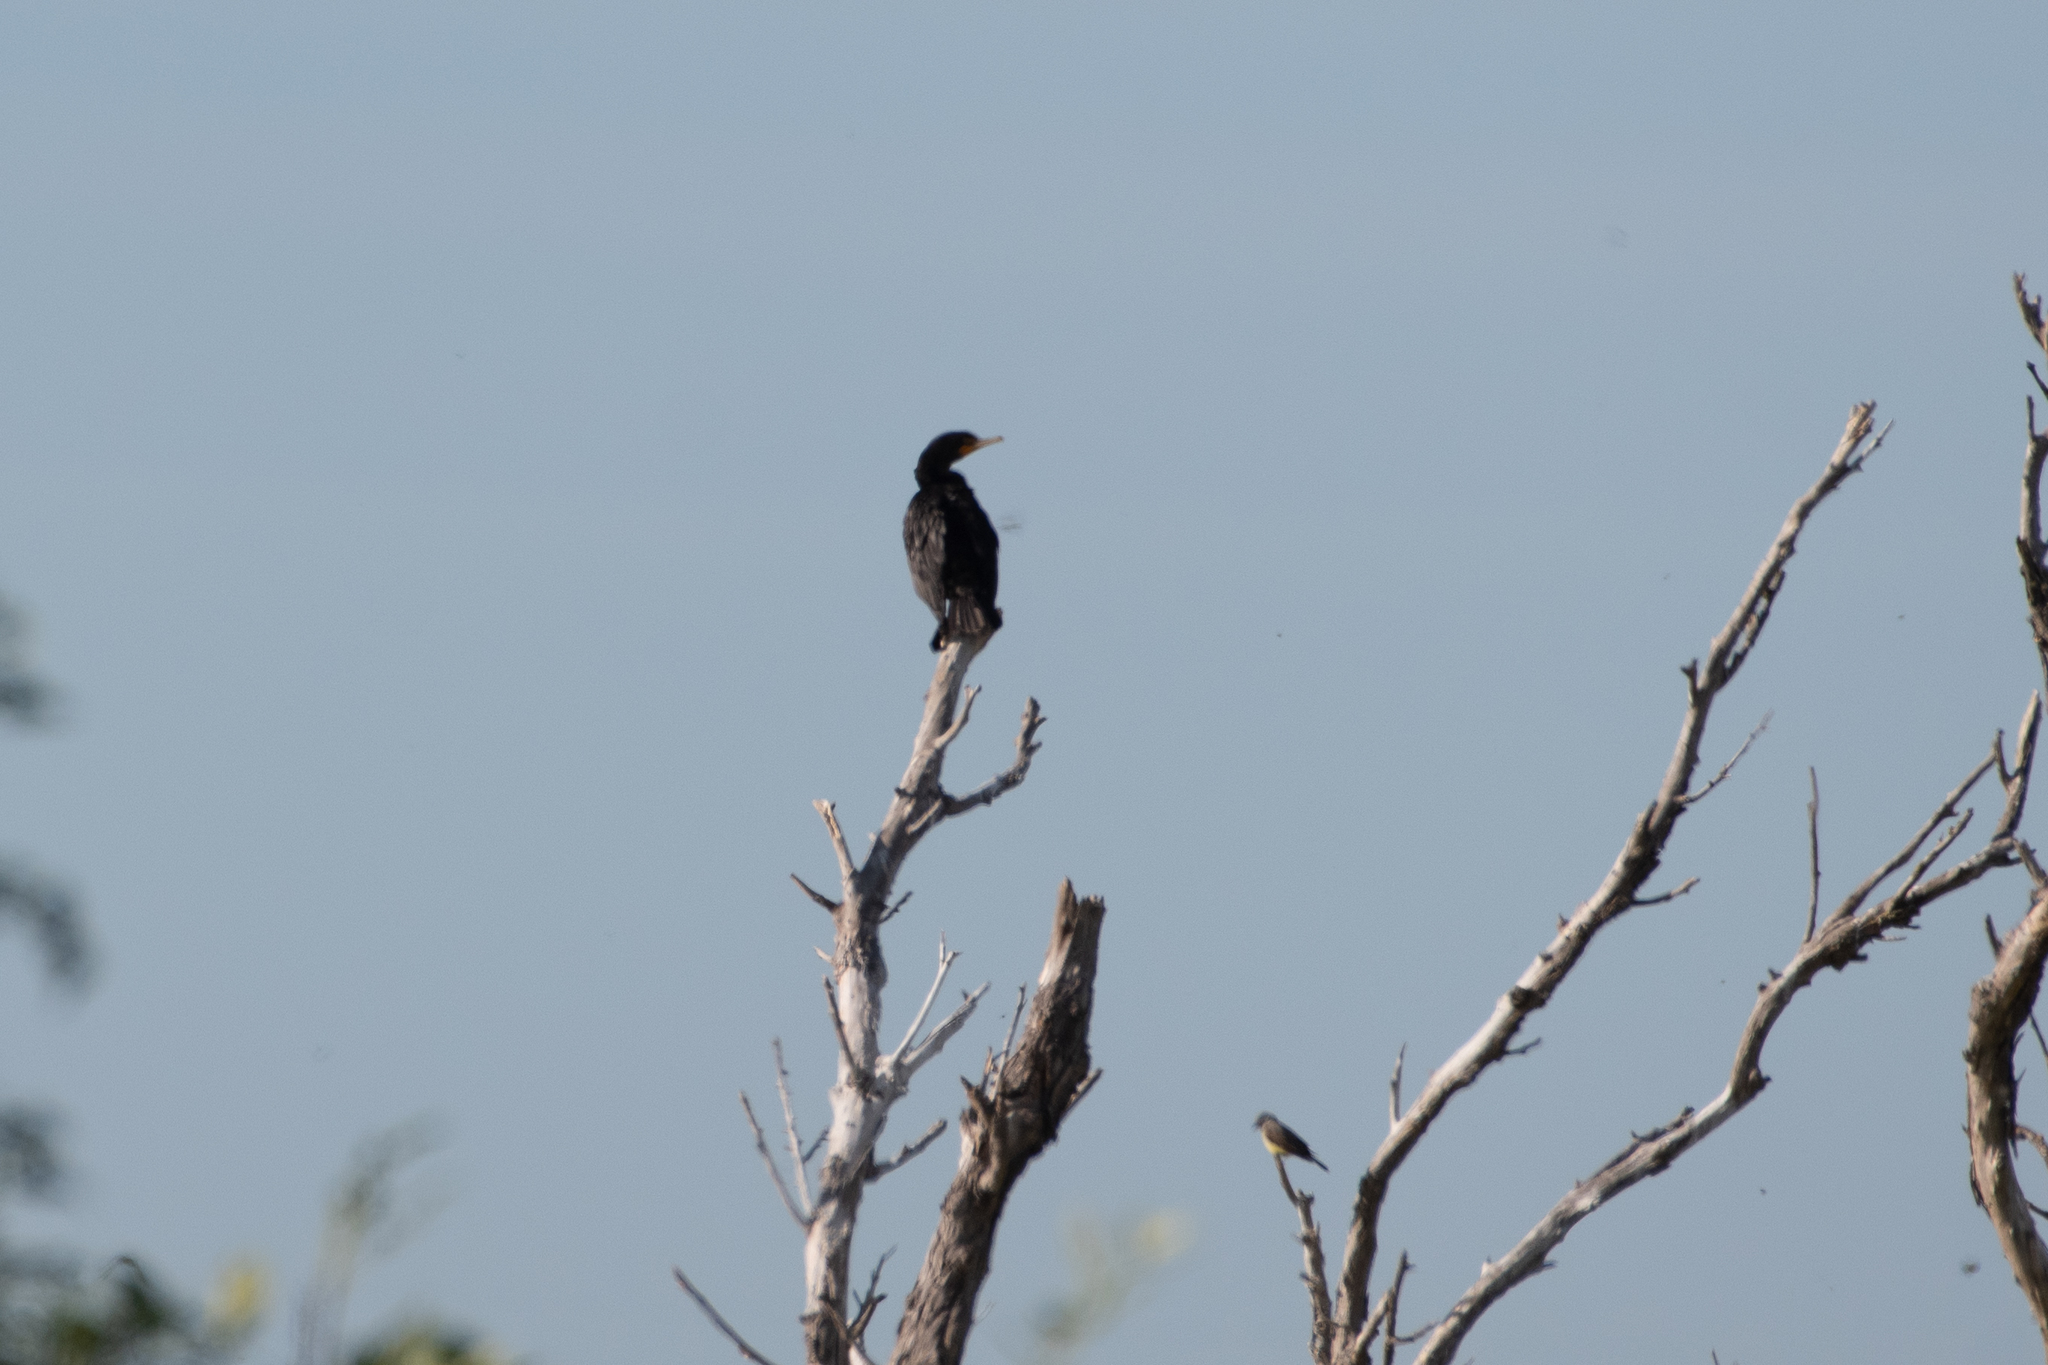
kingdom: Animalia
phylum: Chordata
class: Aves
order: Suliformes
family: Phalacrocoracidae
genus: Phalacrocorax
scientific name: Phalacrocorax auritus
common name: Double-crested cormorant
